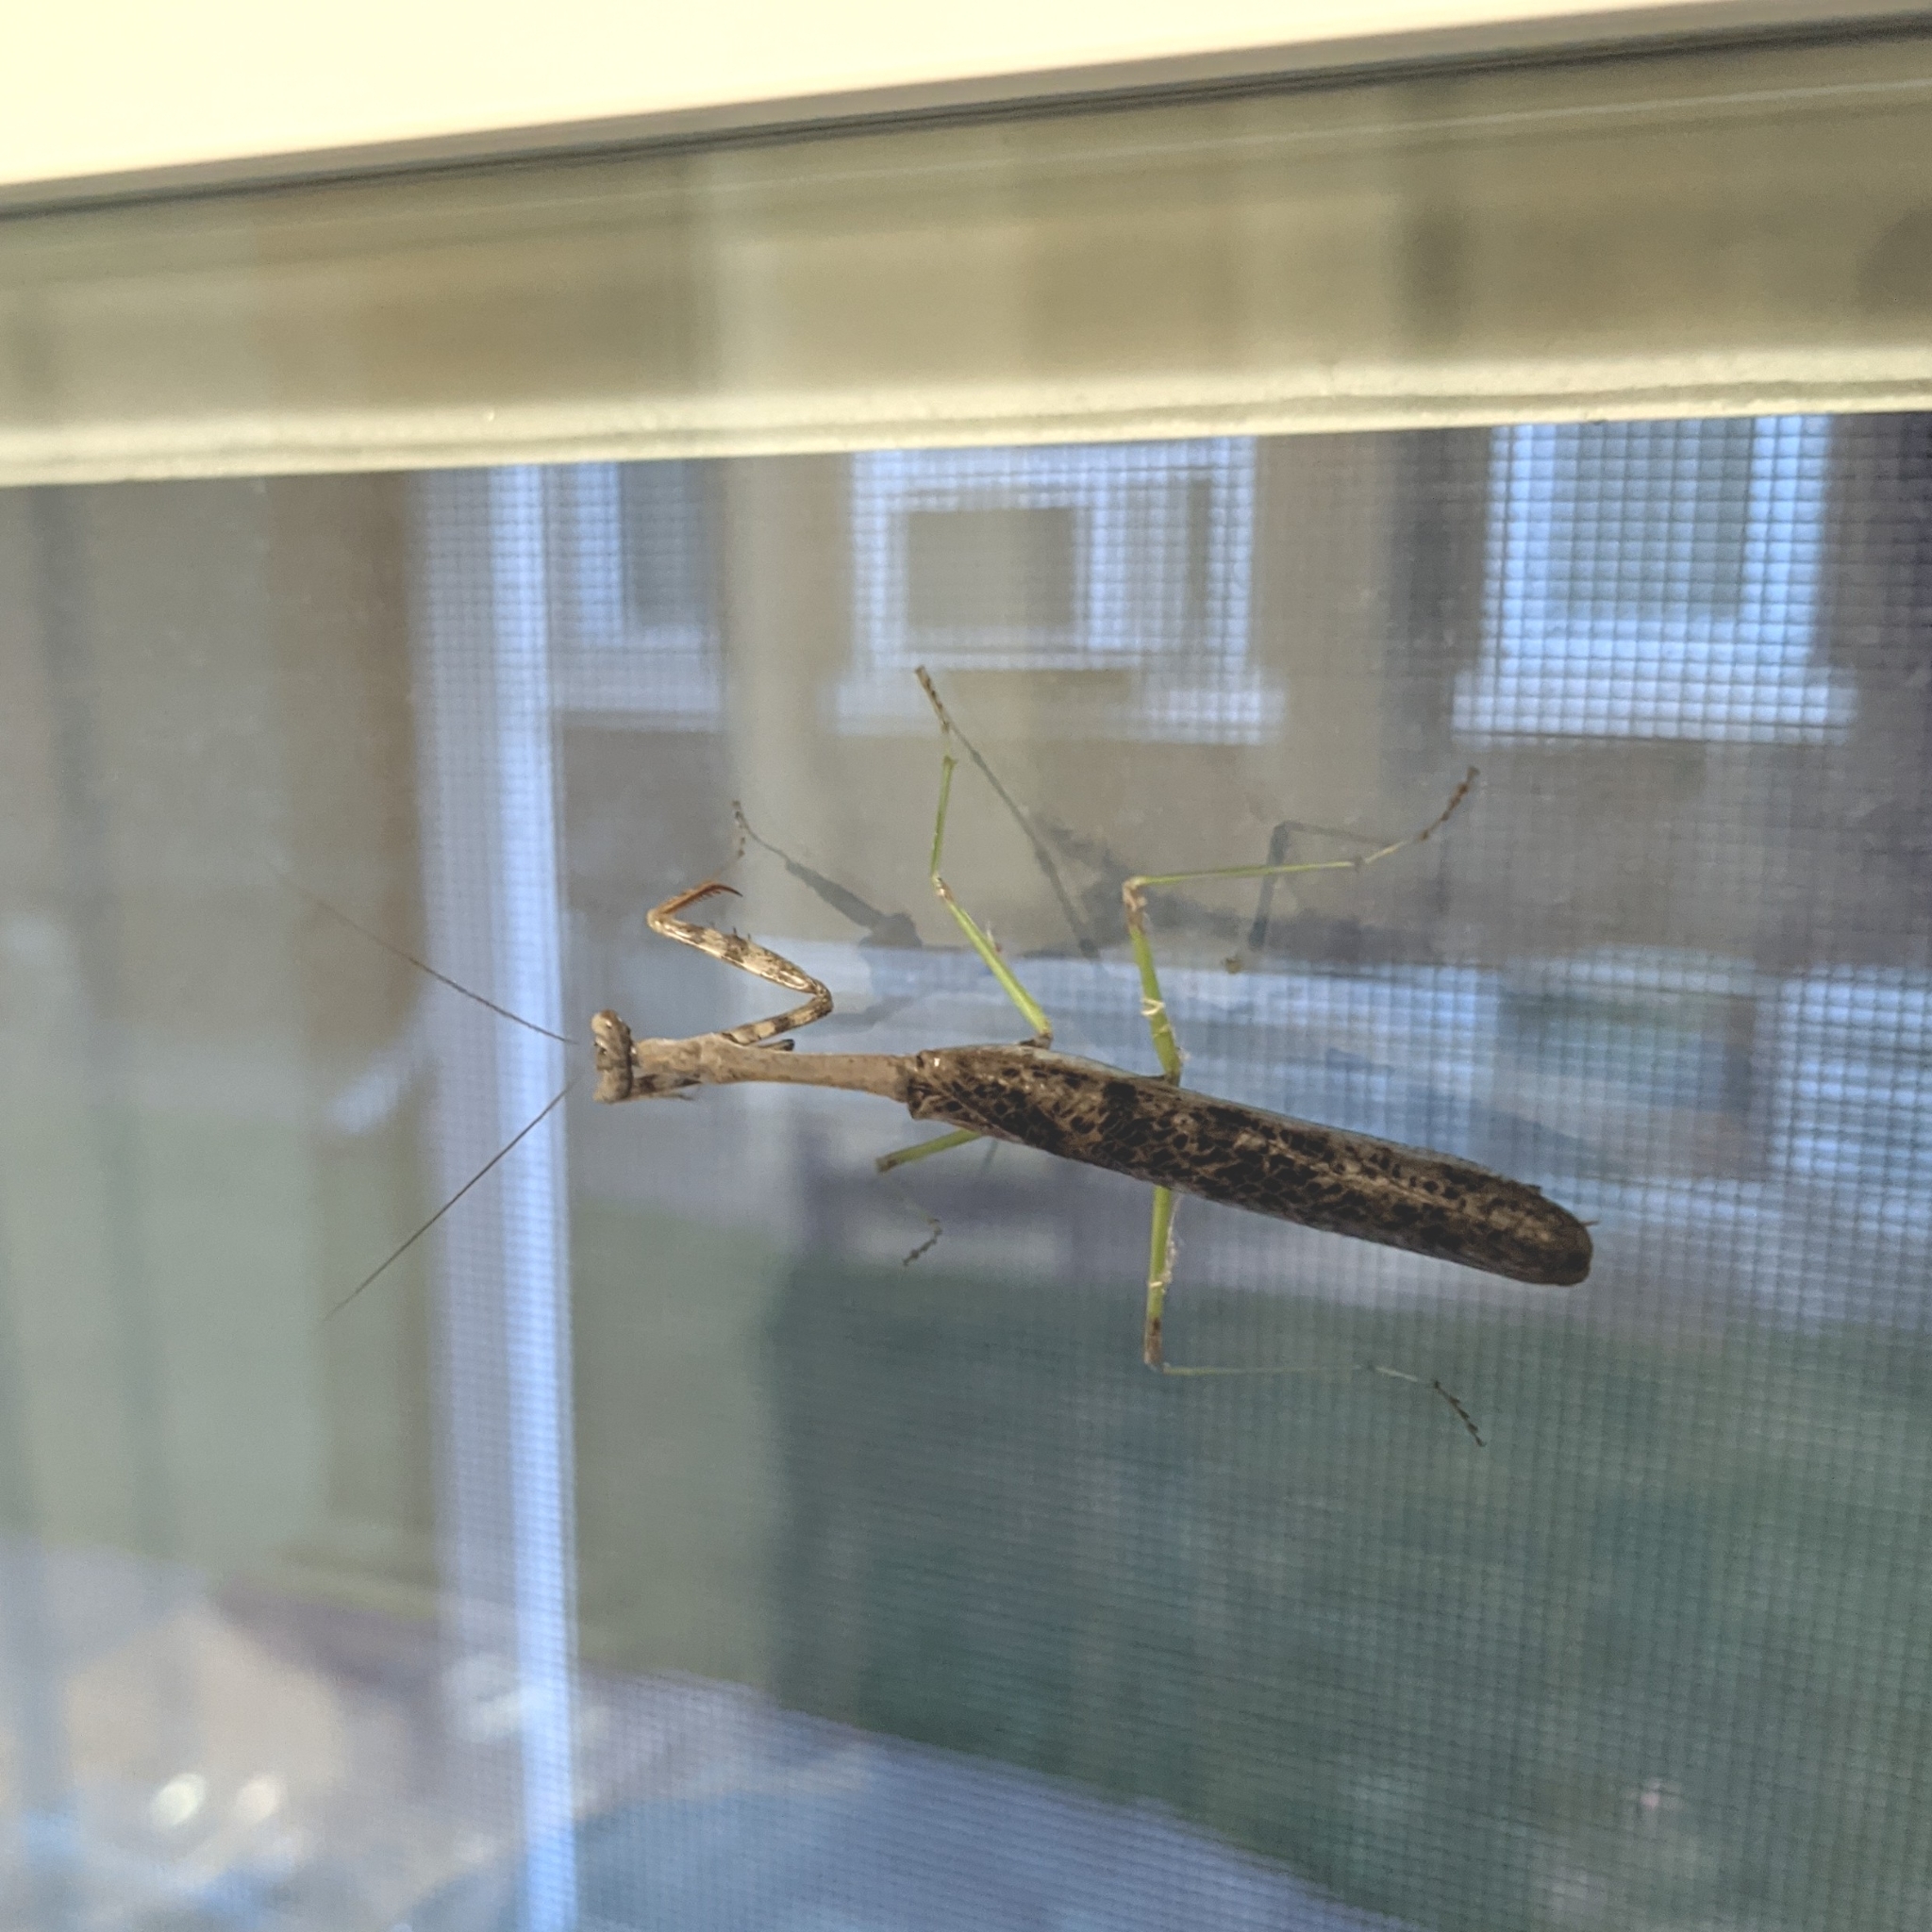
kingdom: Animalia
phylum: Arthropoda
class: Insecta
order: Mantodea
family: Mantidae
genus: Stagmomantis
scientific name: Stagmomantis carolina
